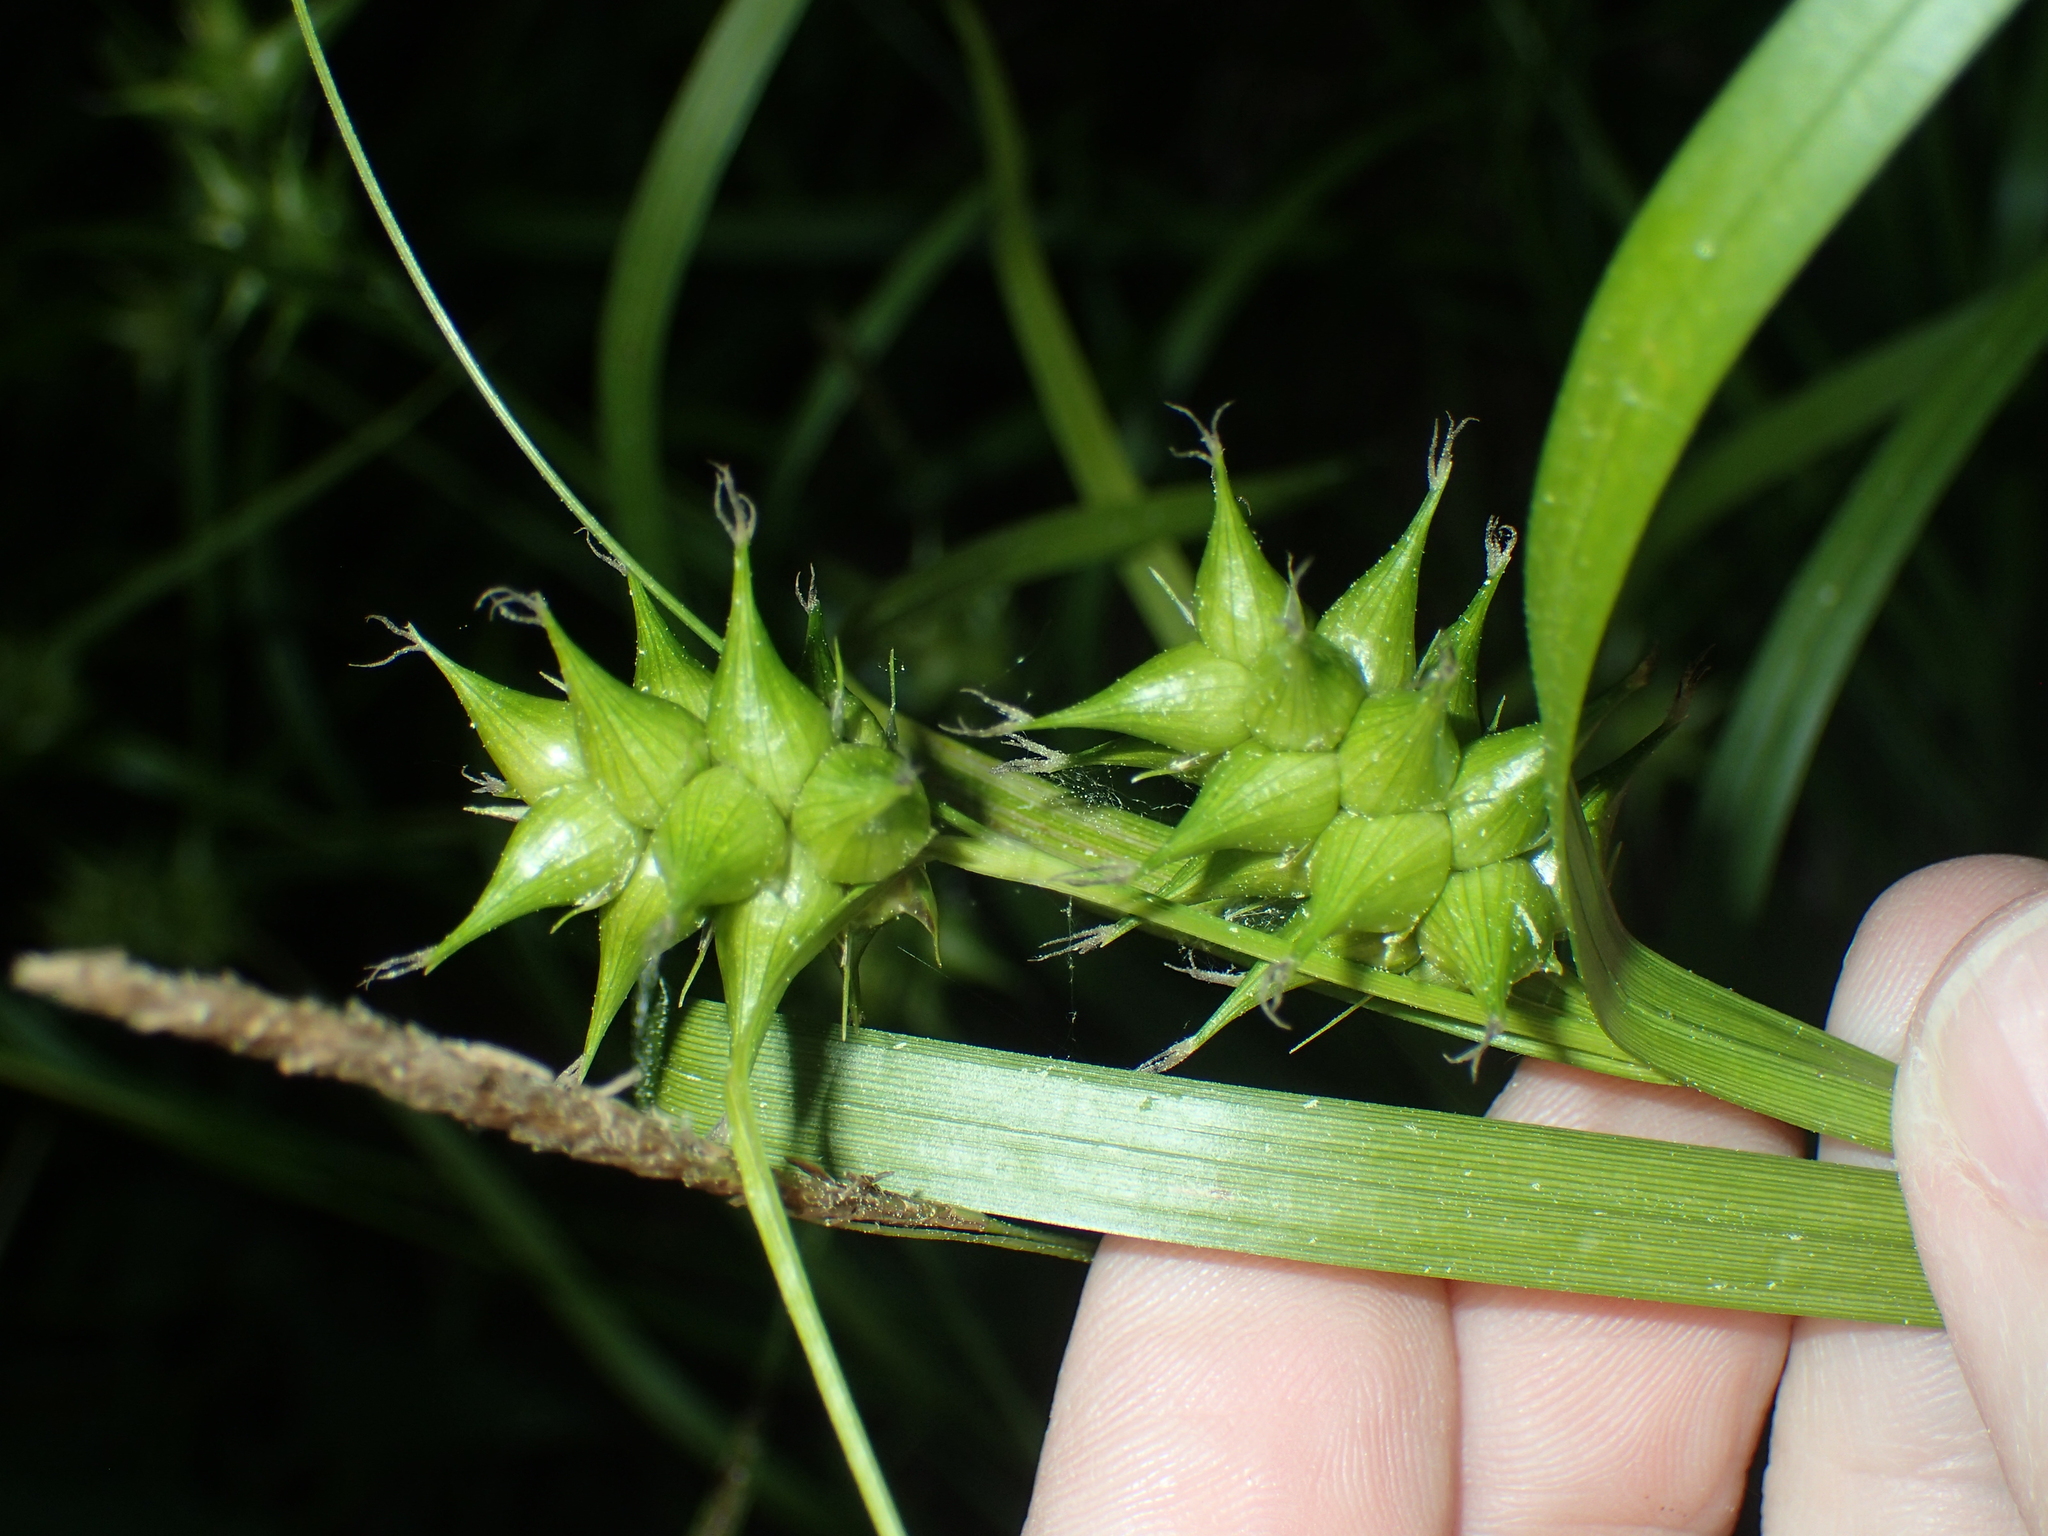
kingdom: Plantae
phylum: Tracheophyta
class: Liliopsida
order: Poales
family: Cyperaceae
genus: Carex
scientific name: Carex intumescens
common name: Greater bladder sedge
